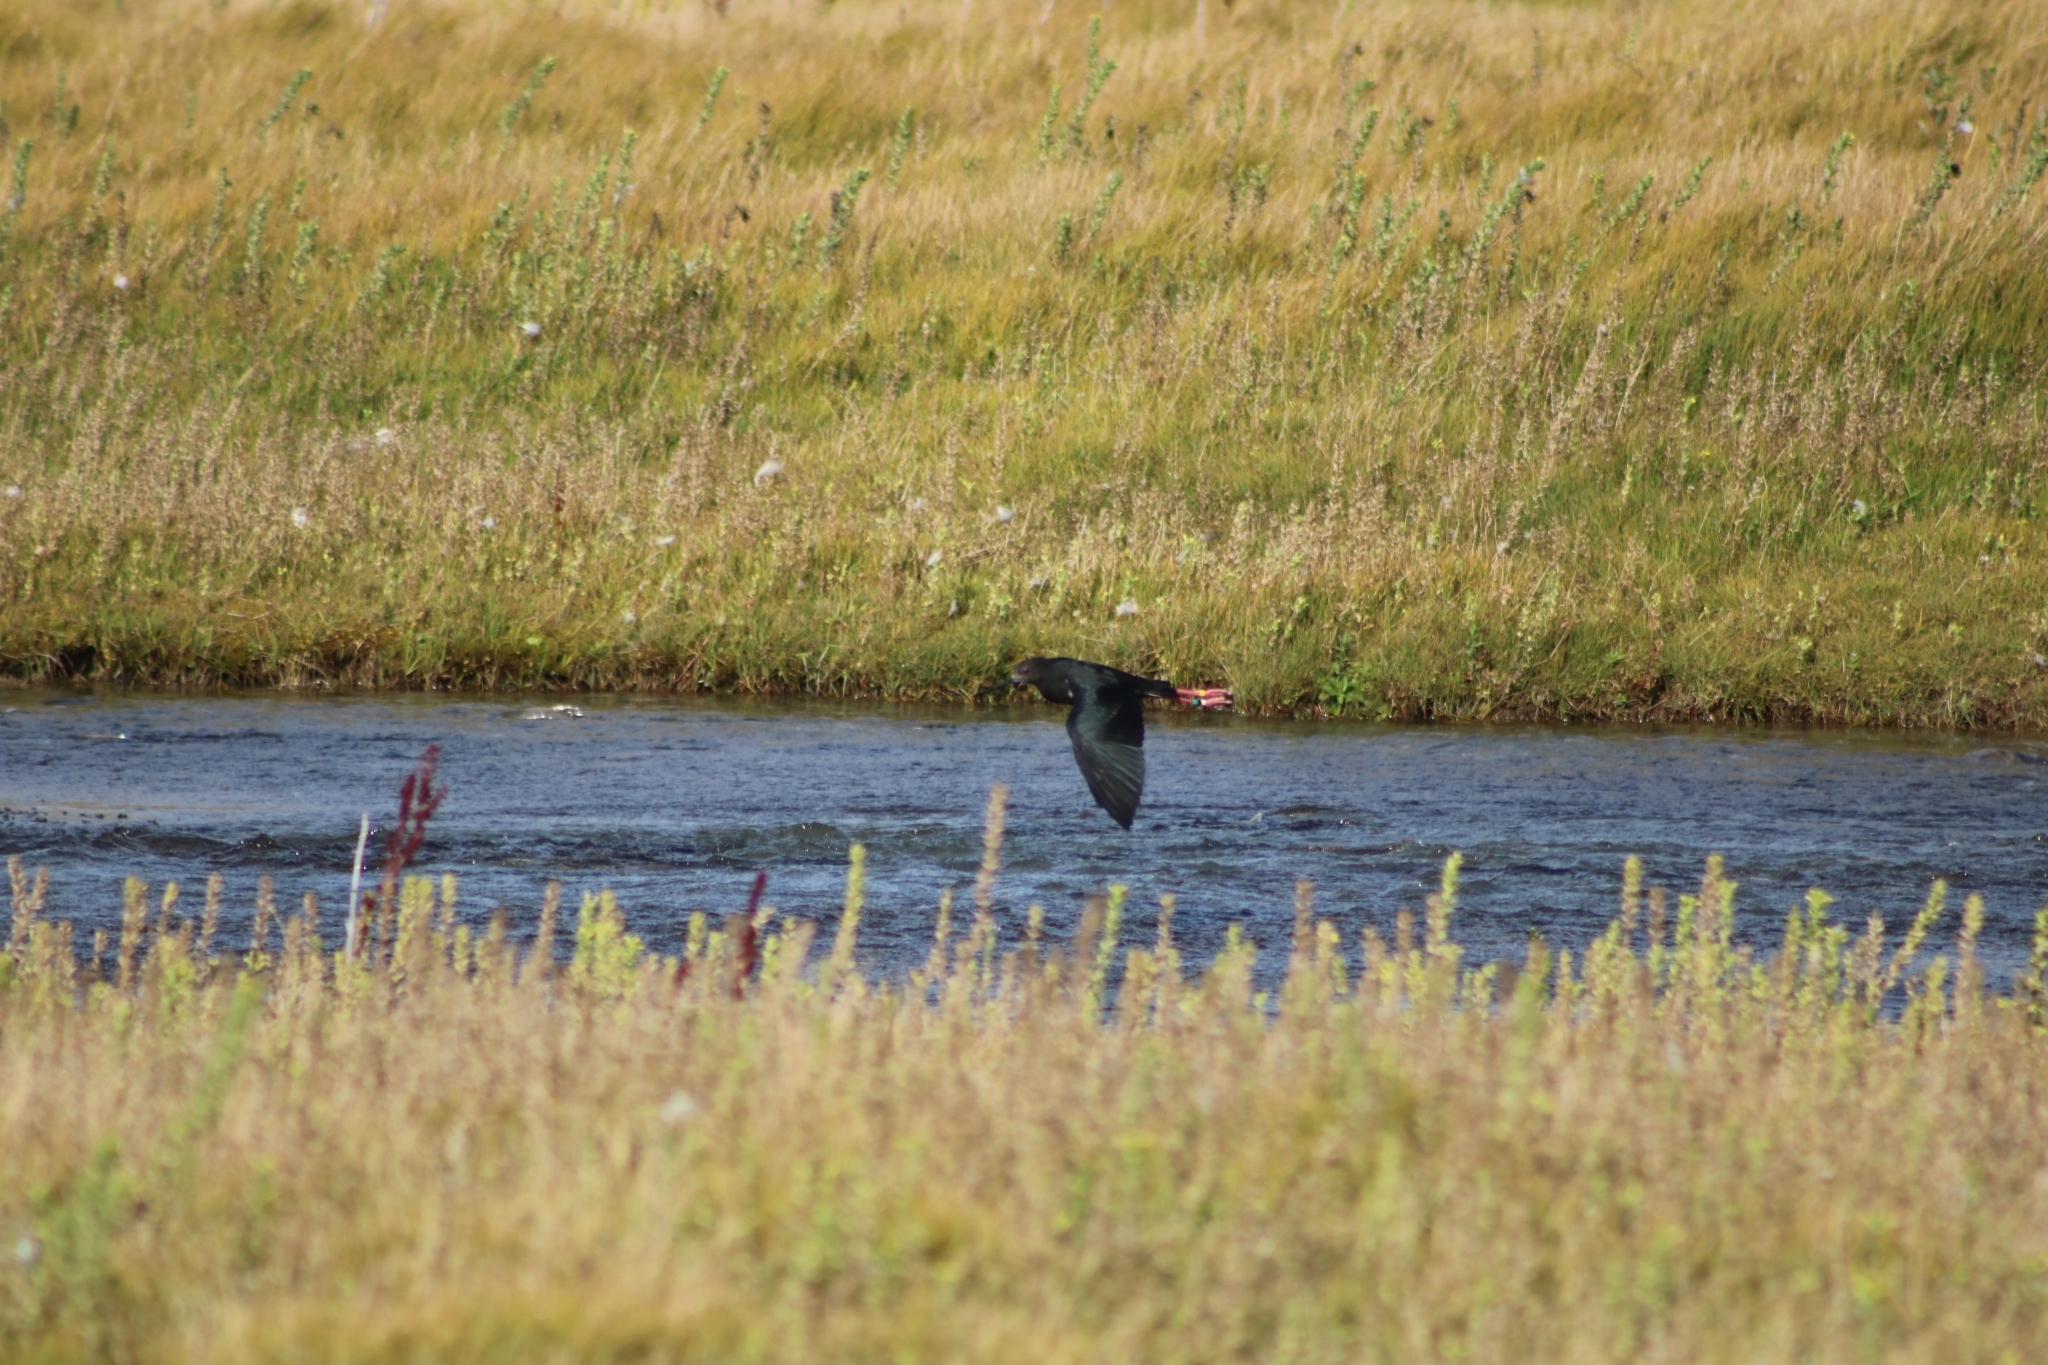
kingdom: Animalia
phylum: Chordata
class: Aves
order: Charadriiformes
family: Recurvirostridae
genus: Himantopus
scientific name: Himantopus novaezelandiae
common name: Black stilt
